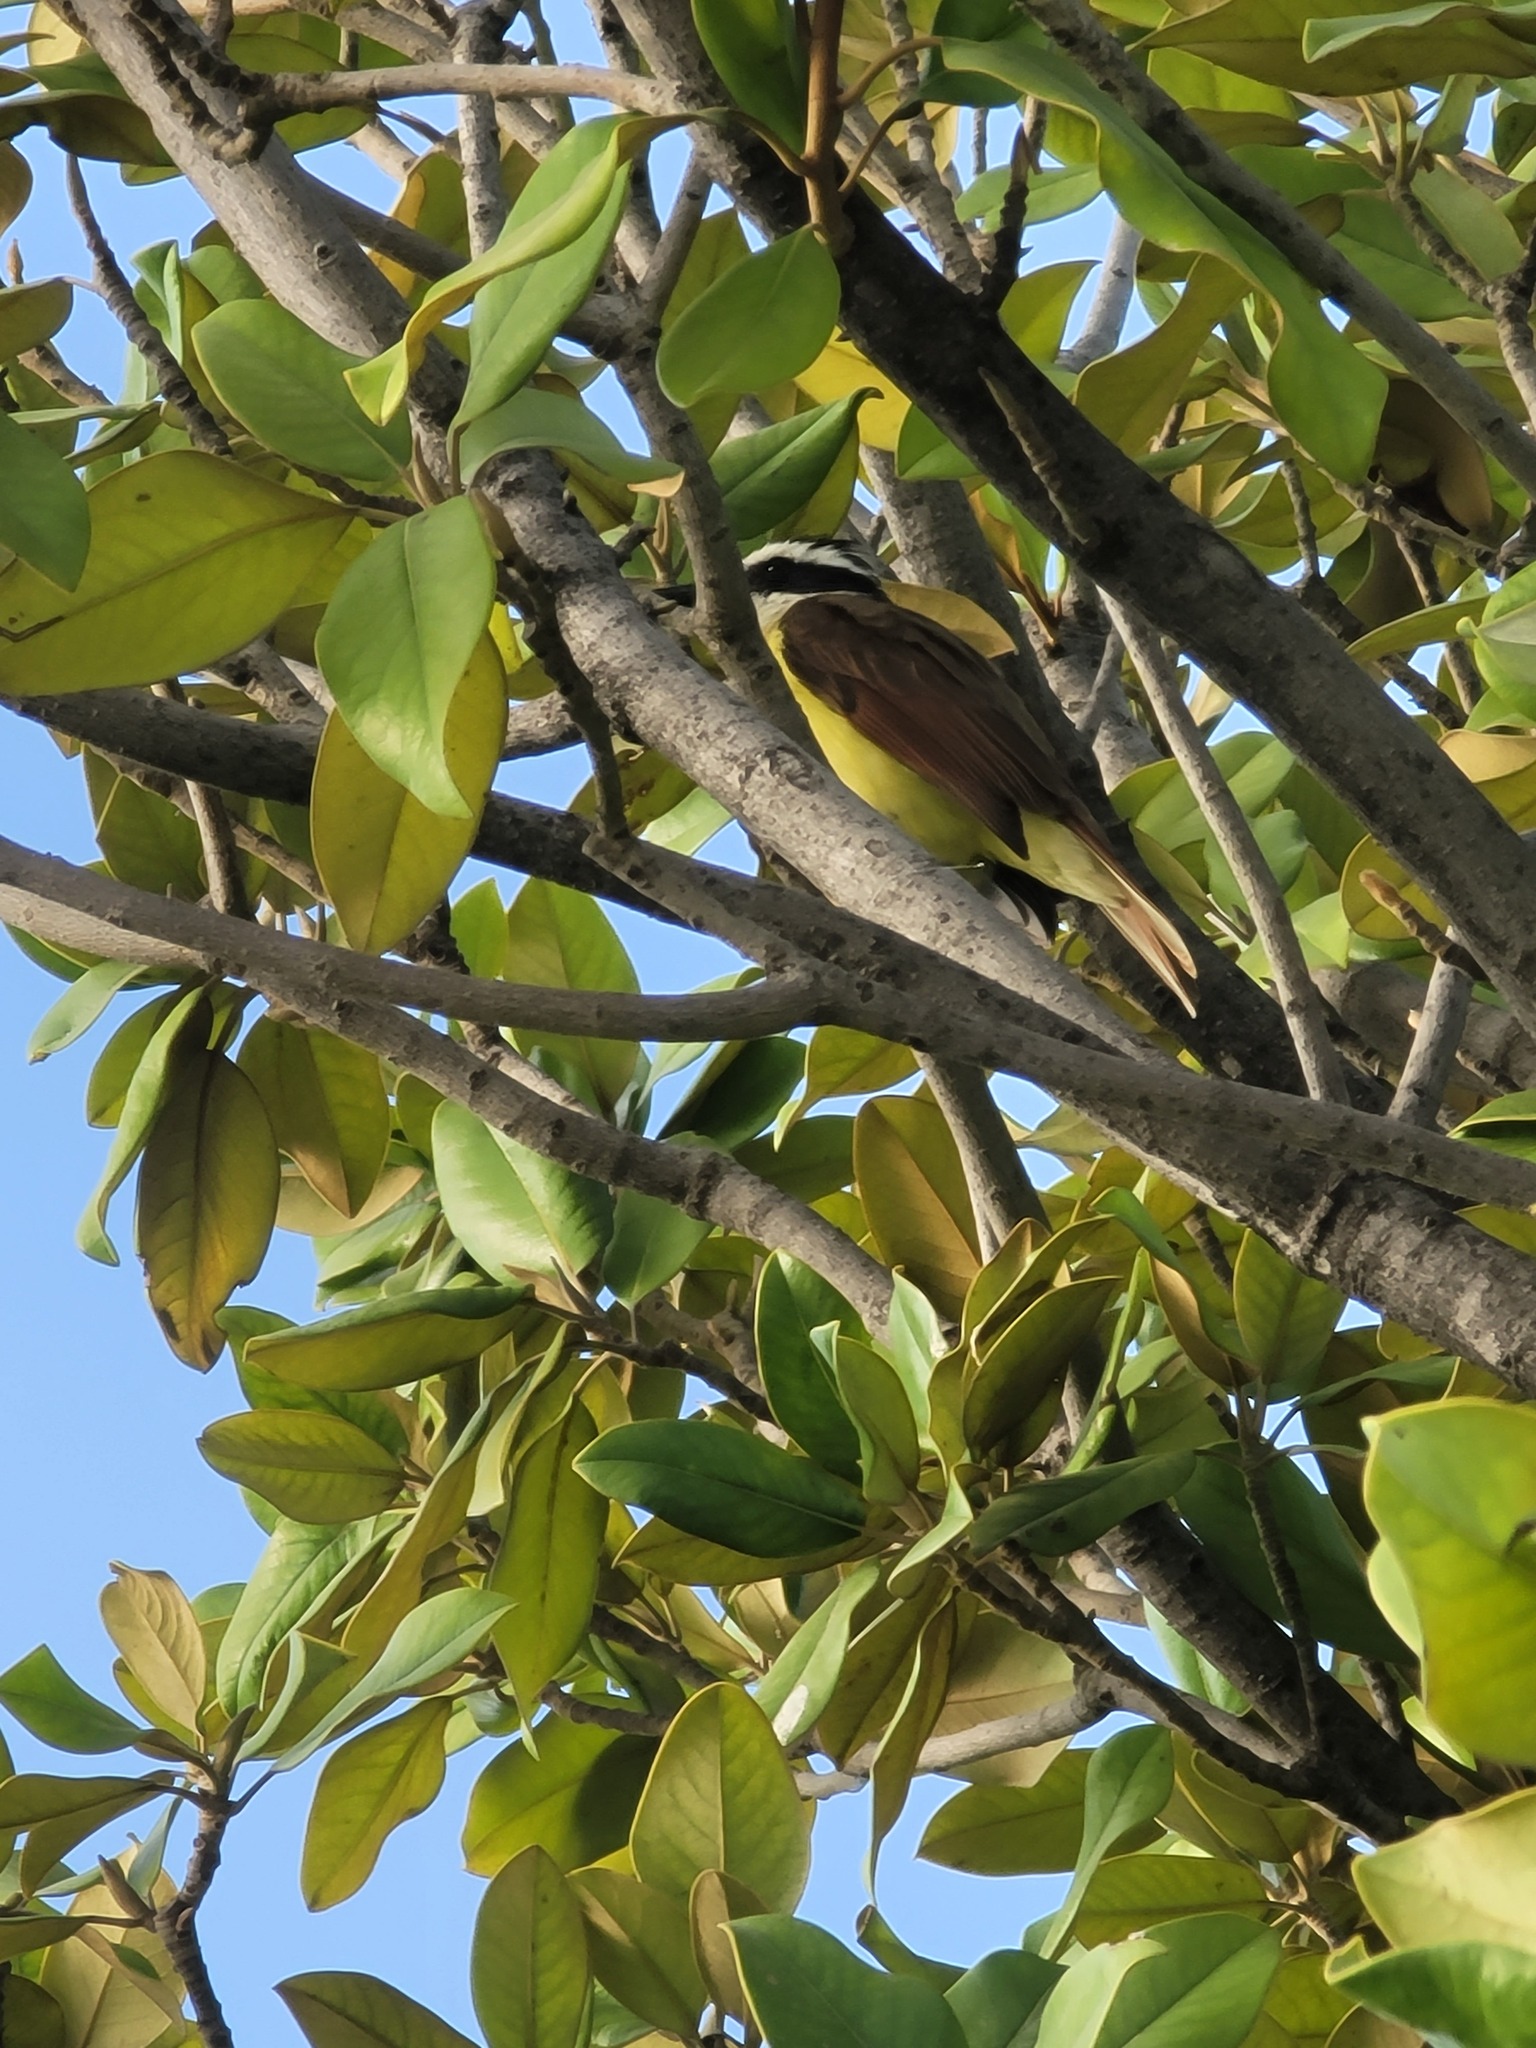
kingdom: Animalia
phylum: Chordata
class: Aves
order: Passeriformes
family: Tyrannidae
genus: Pitangus
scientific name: Pitangus sulphuratus
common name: Great kiskadee
